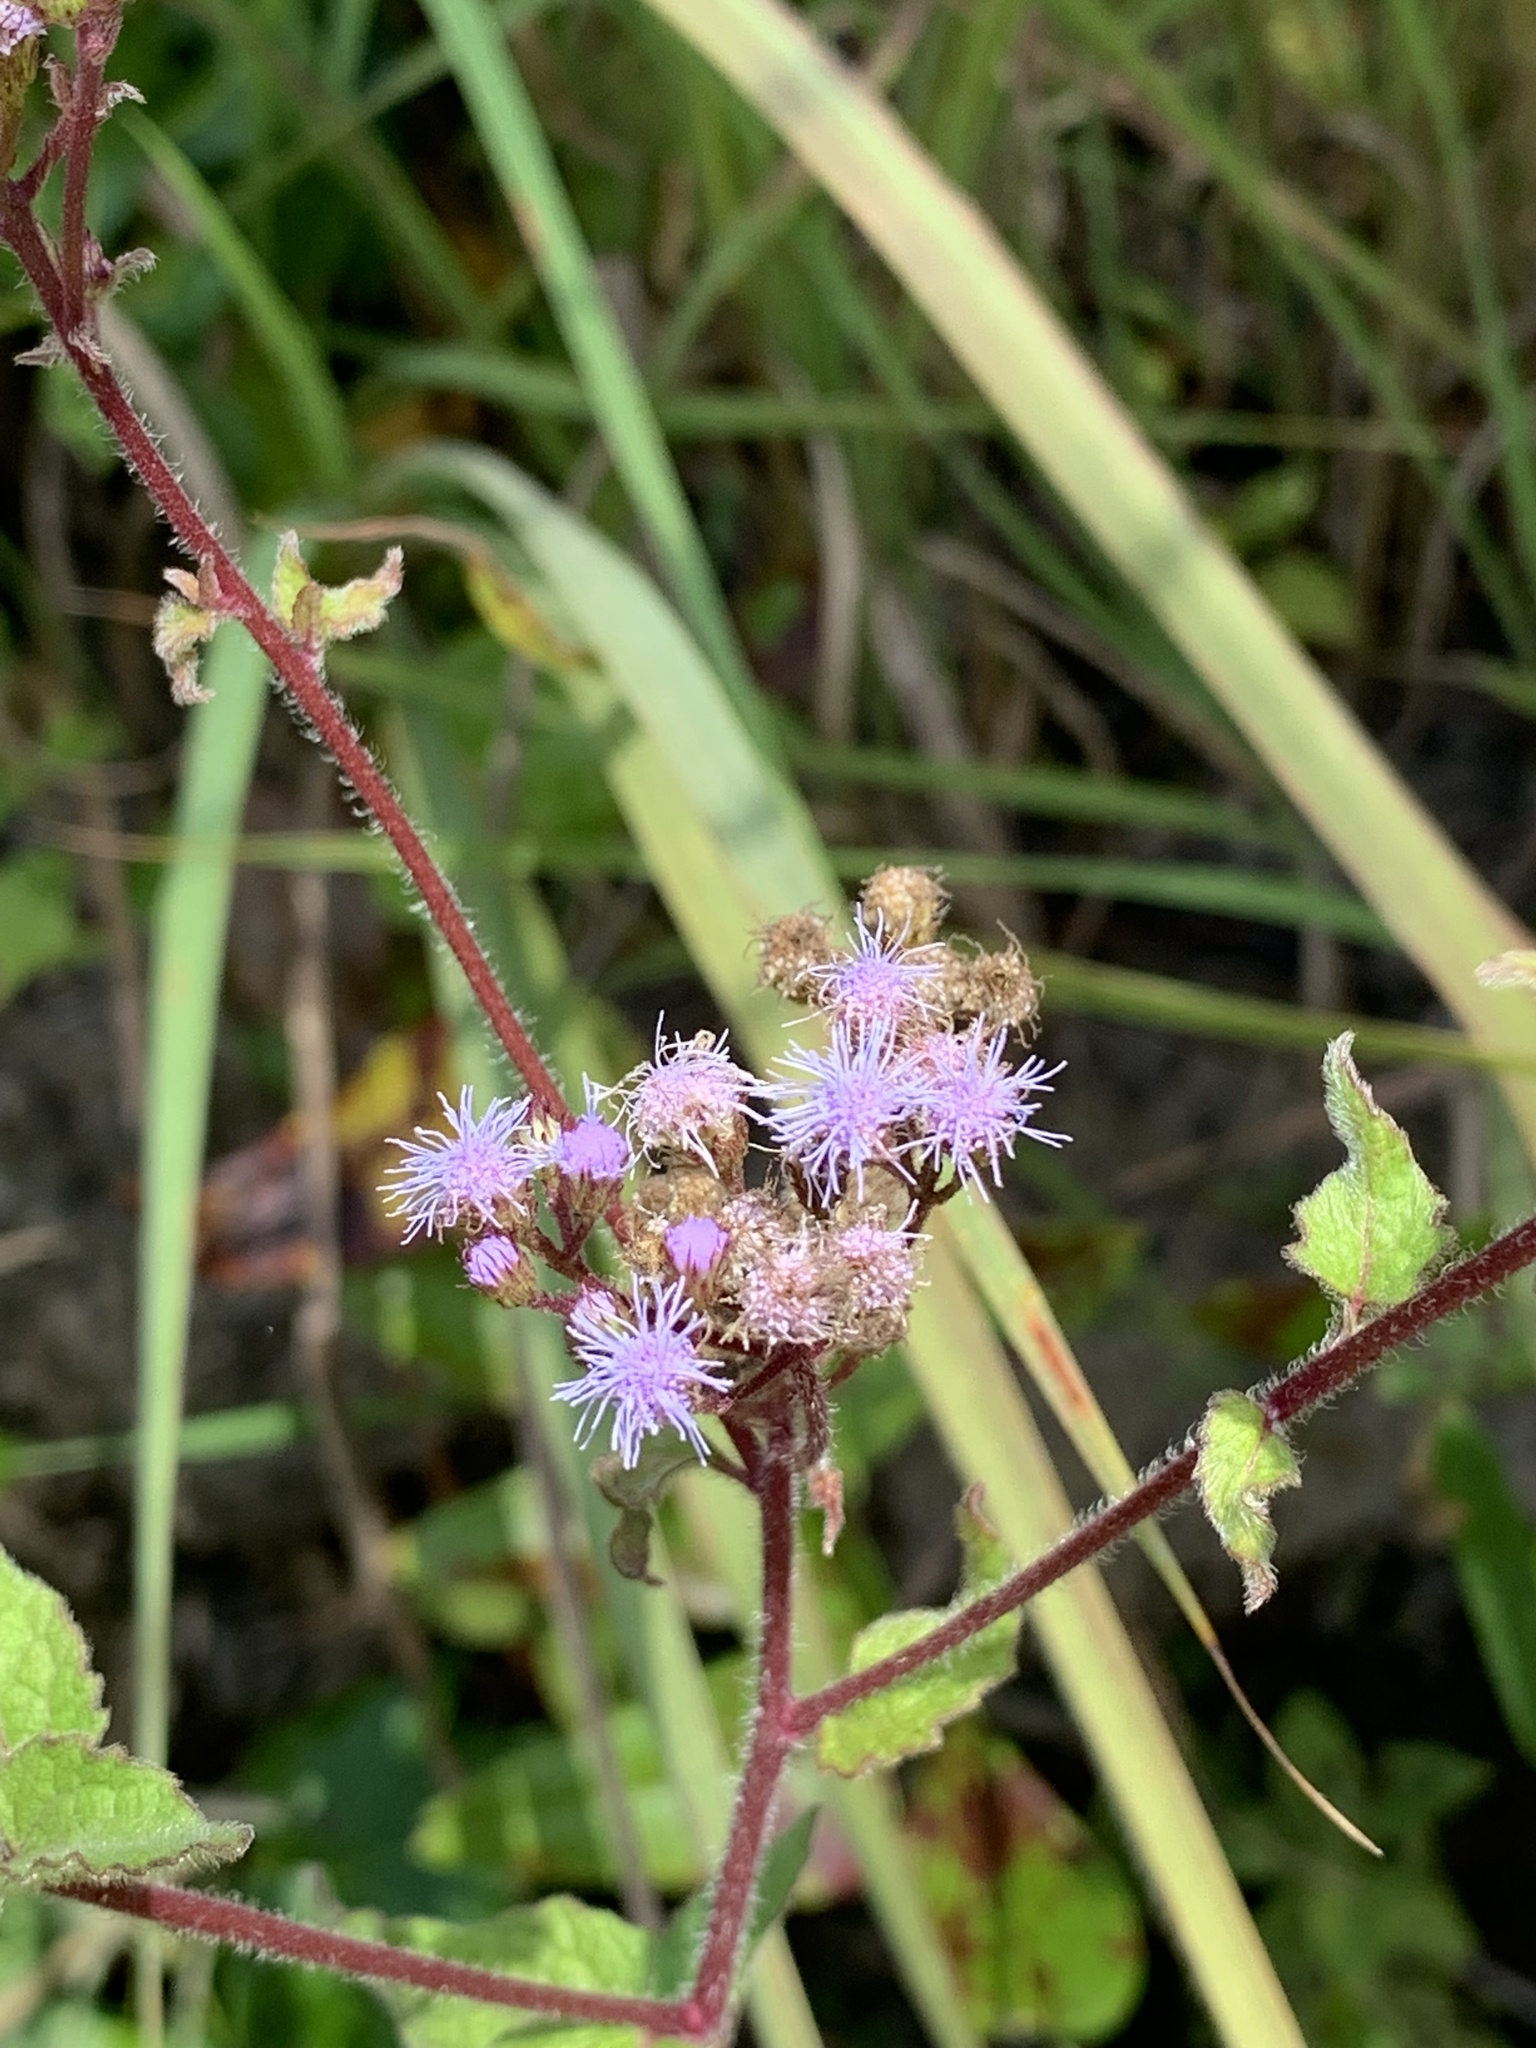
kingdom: Plantae
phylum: Tracheophyta
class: Magnoliopsida
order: Asterales
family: Asteraceae
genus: Conoclinium
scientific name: Conoclinium coelestinum
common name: Blue mistflower
